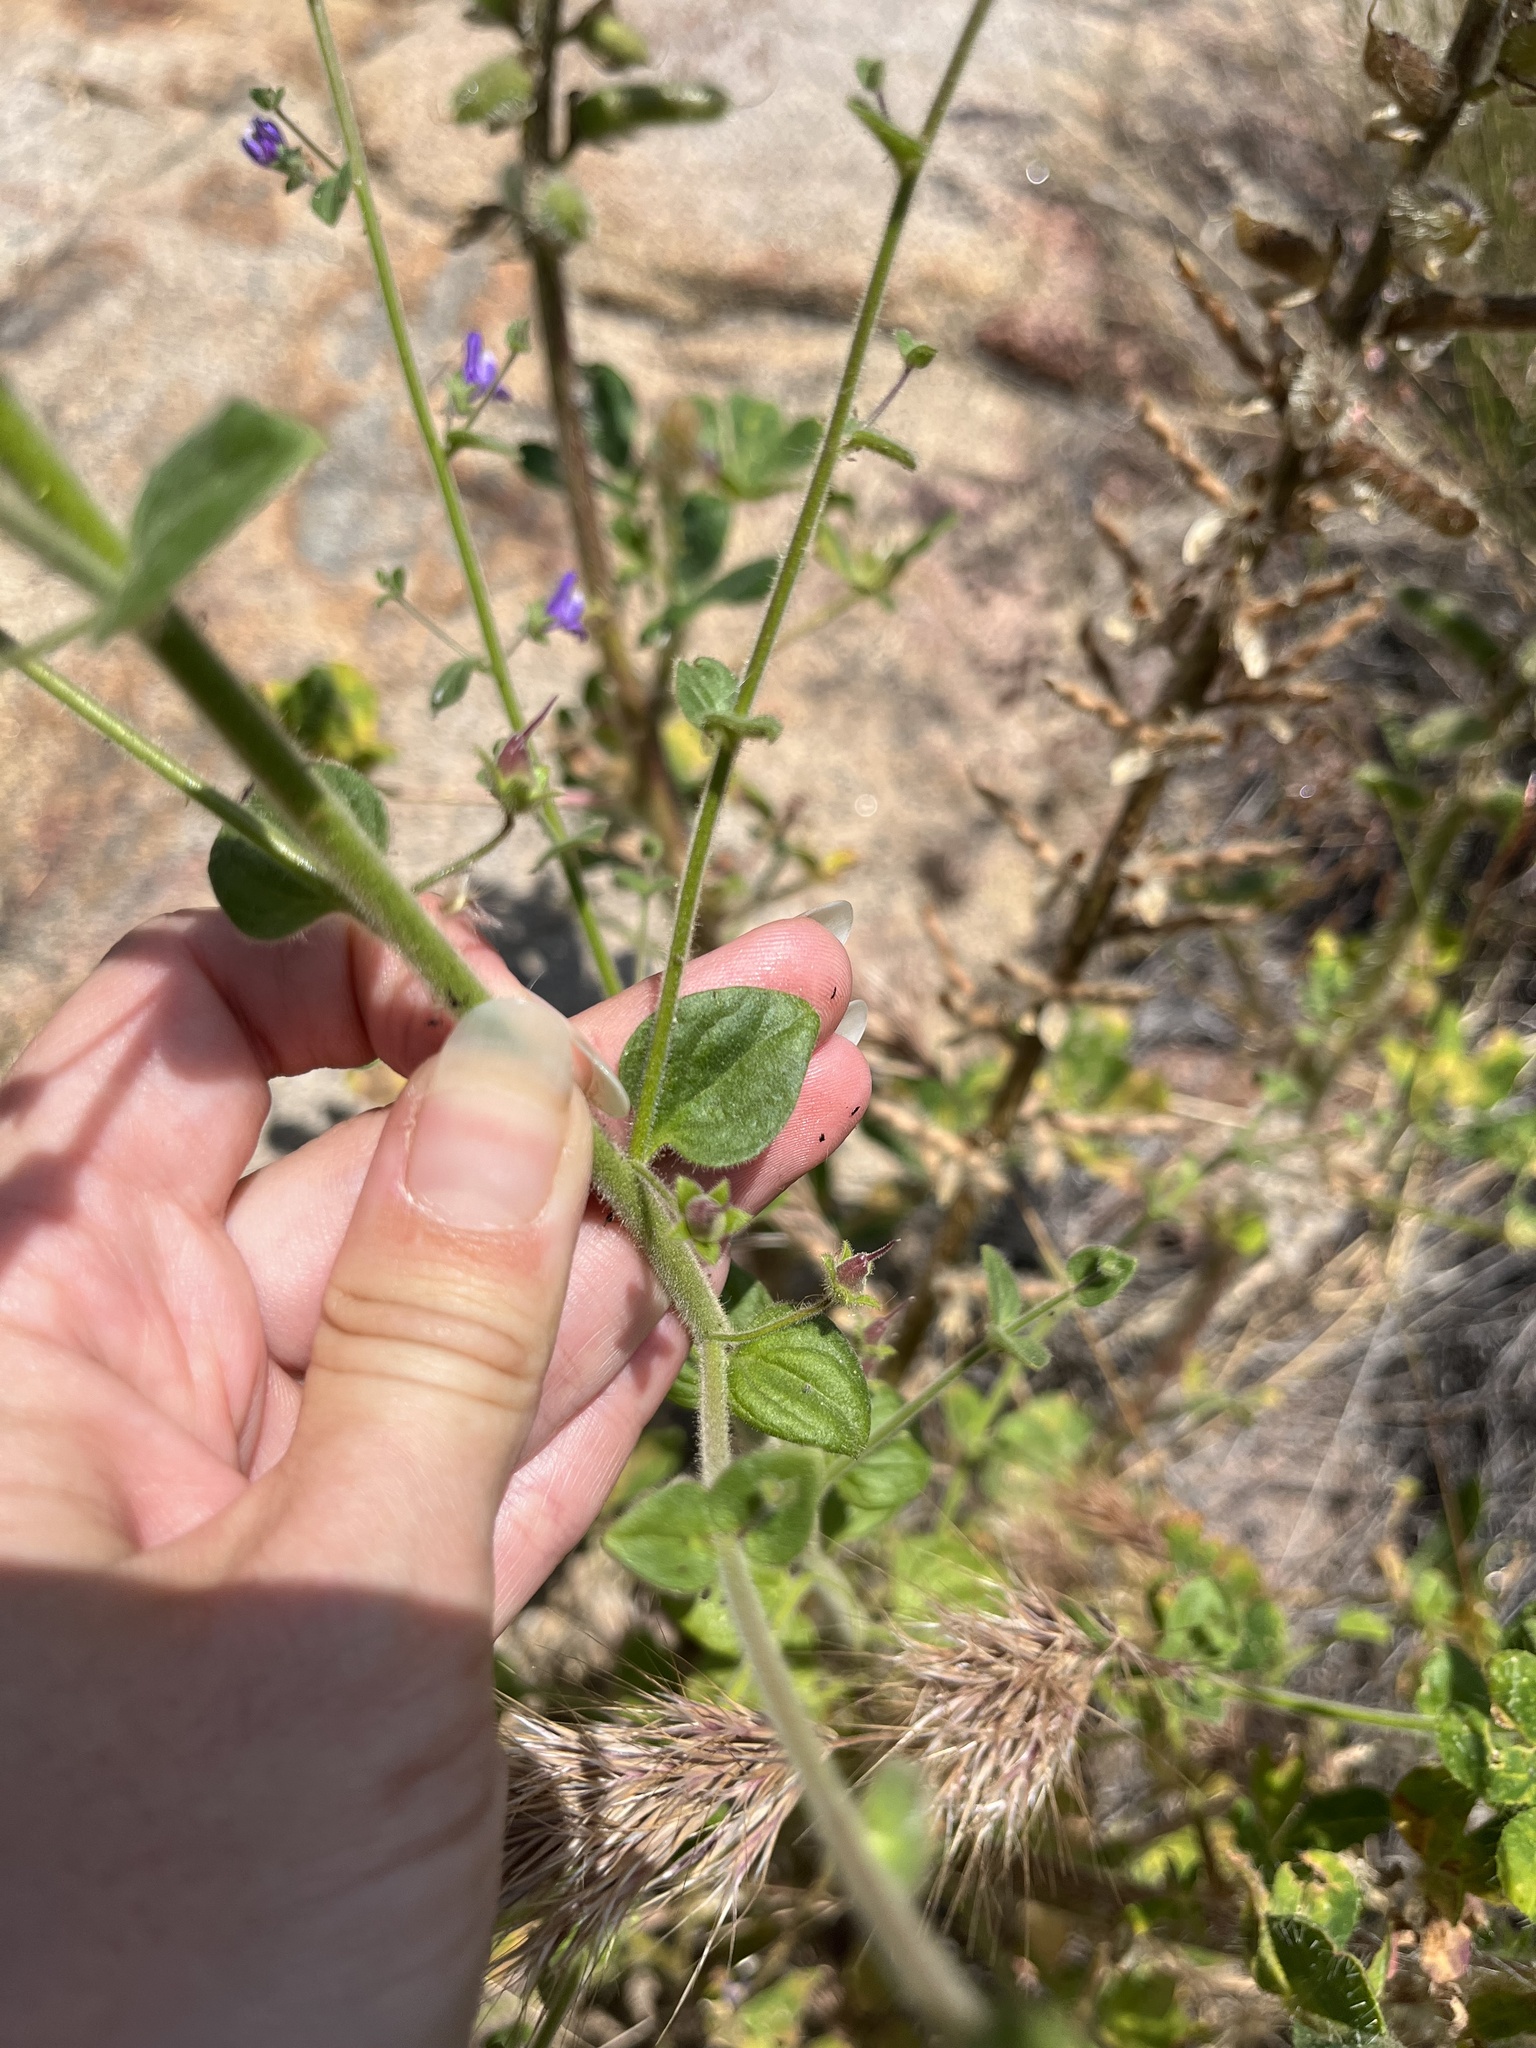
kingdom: Plantae
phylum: Tracheophyta
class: Magnoliopsida
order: Lamiales
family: Plantaginaceae
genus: Sairocarpus
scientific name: Sairocarpus nuttallianus
